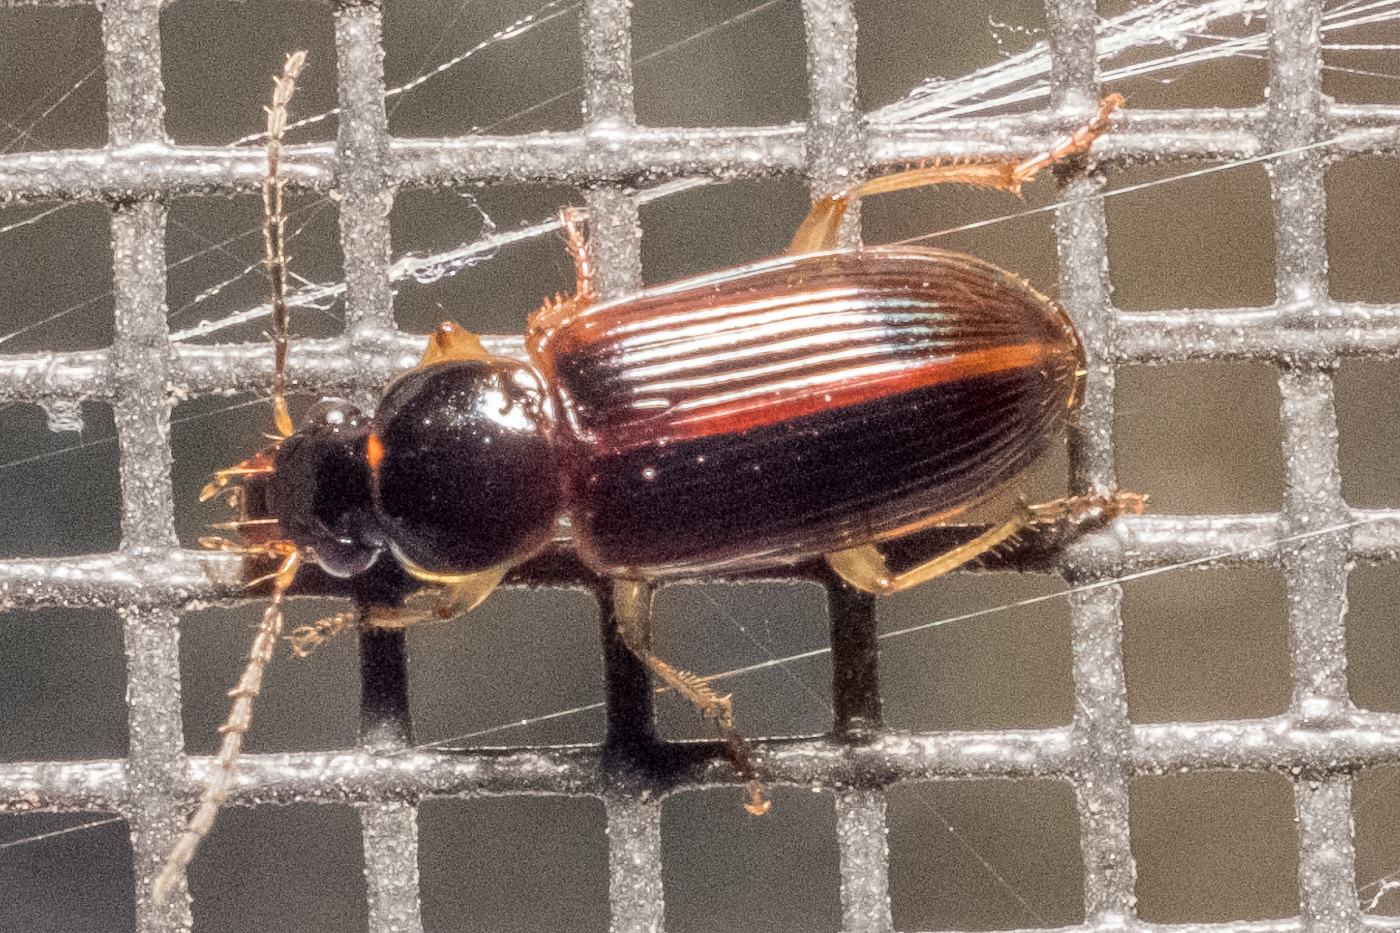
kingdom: Animalia
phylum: Arthropoda
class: Insecta
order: Coleoptera
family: Carabidae
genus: Stenolophus
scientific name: Stenolophus ochropezus
